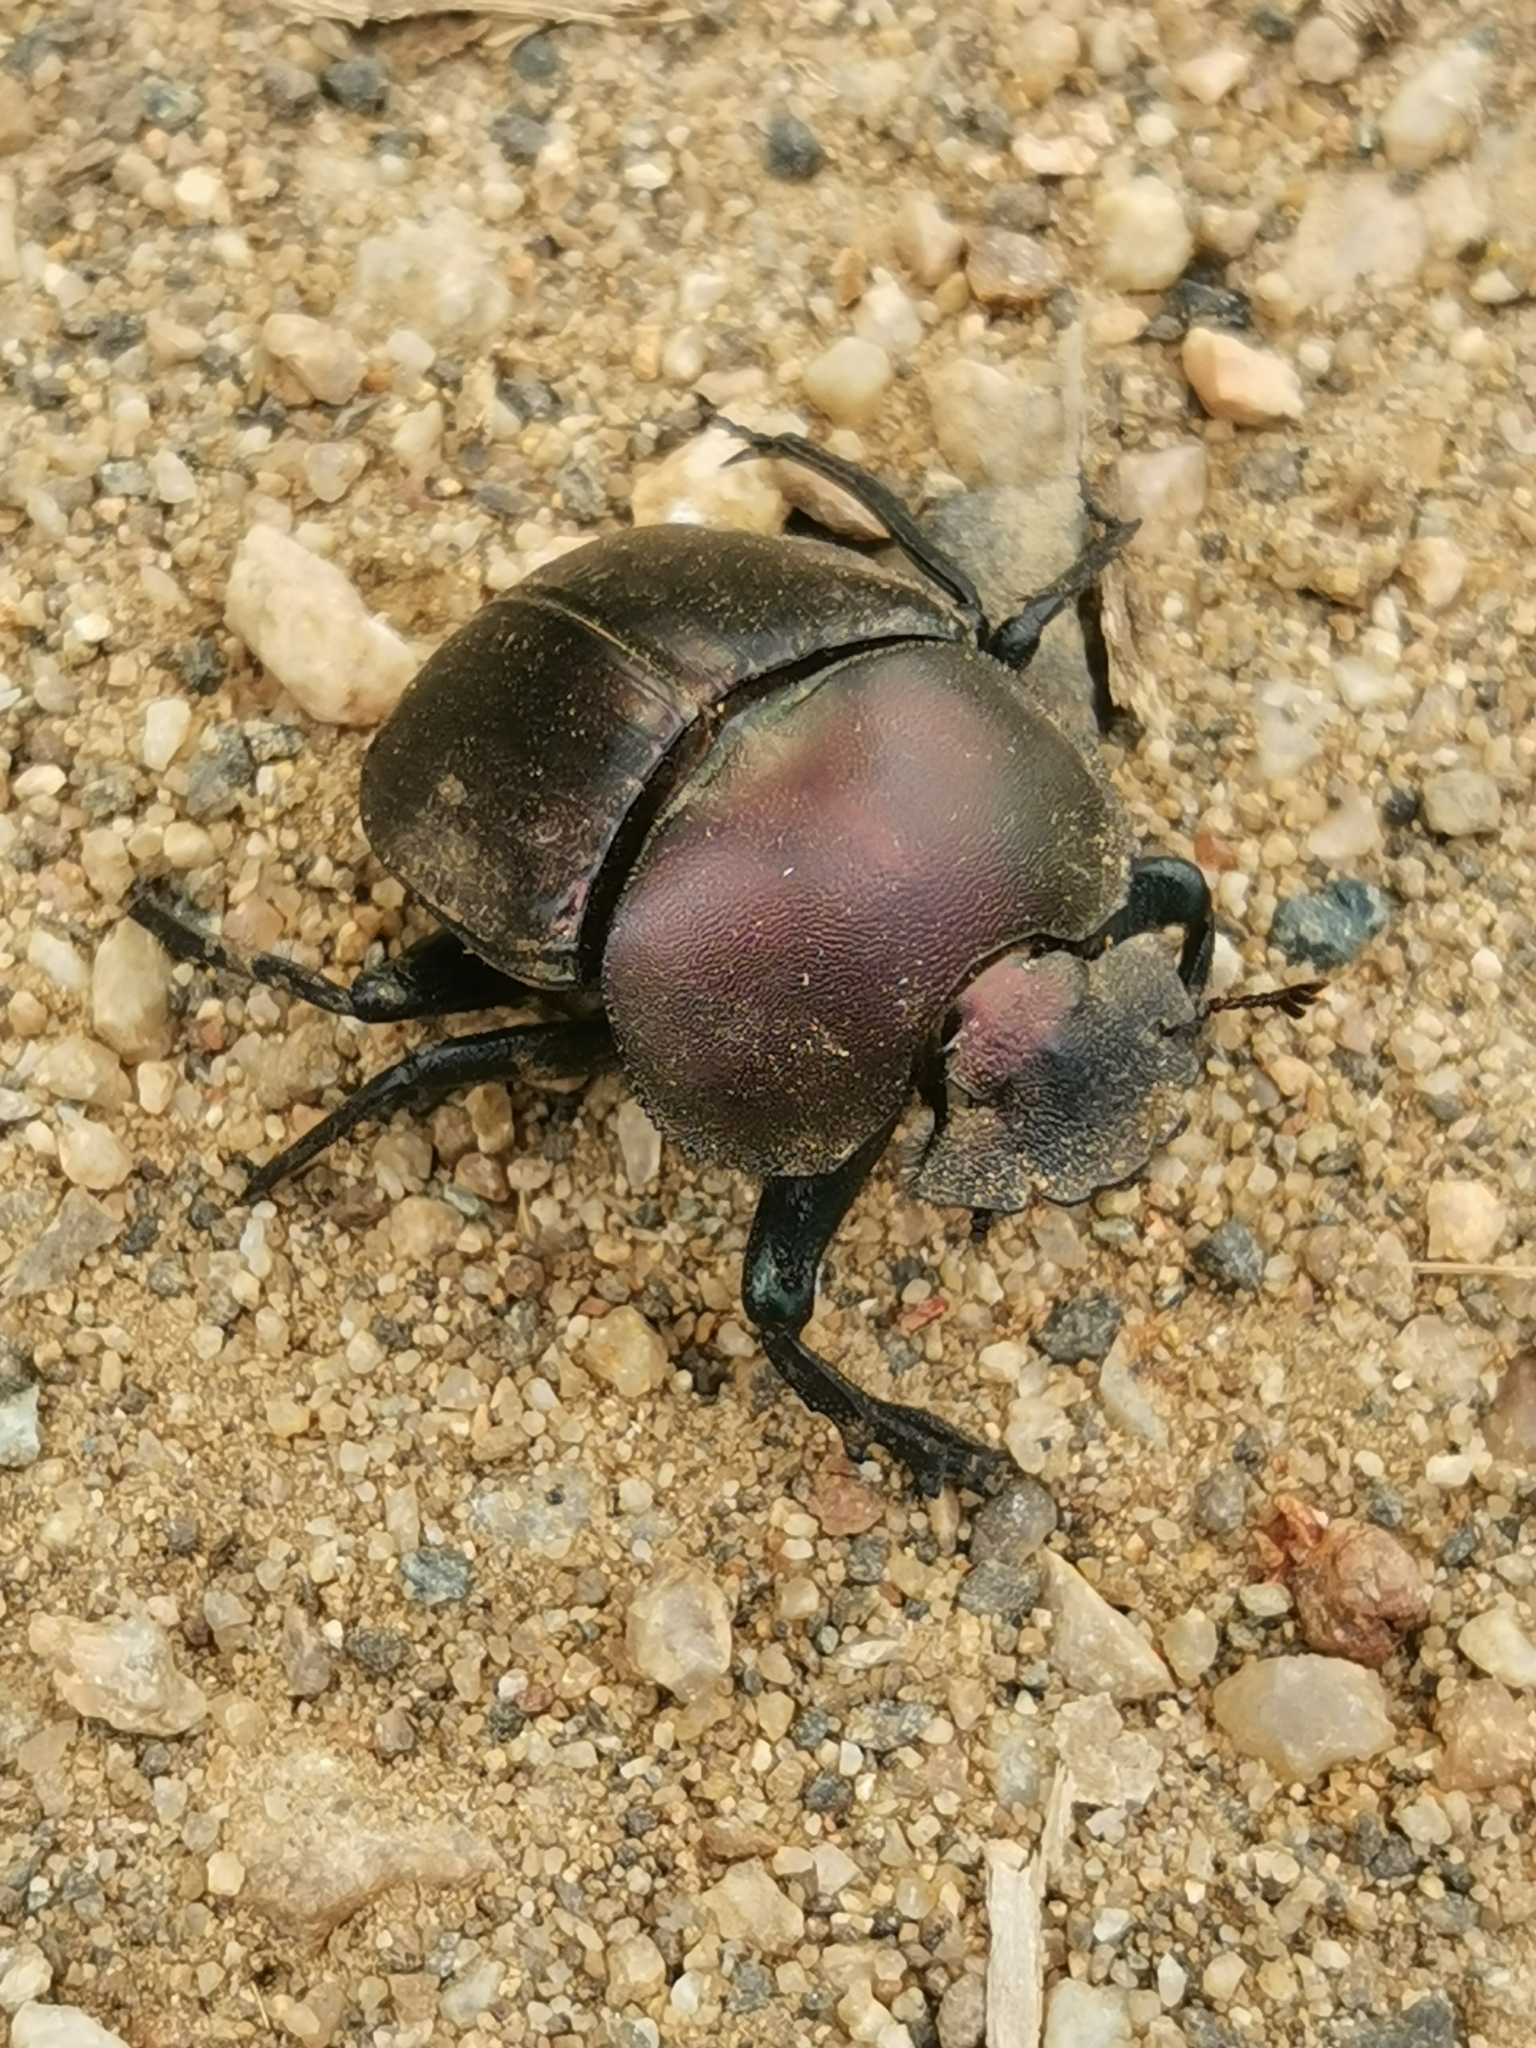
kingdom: Animalia
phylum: Arthropoda
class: Insecta
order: Coleoptera
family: Scarabaeidae
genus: Kheper
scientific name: Kheper nigroaeneus
